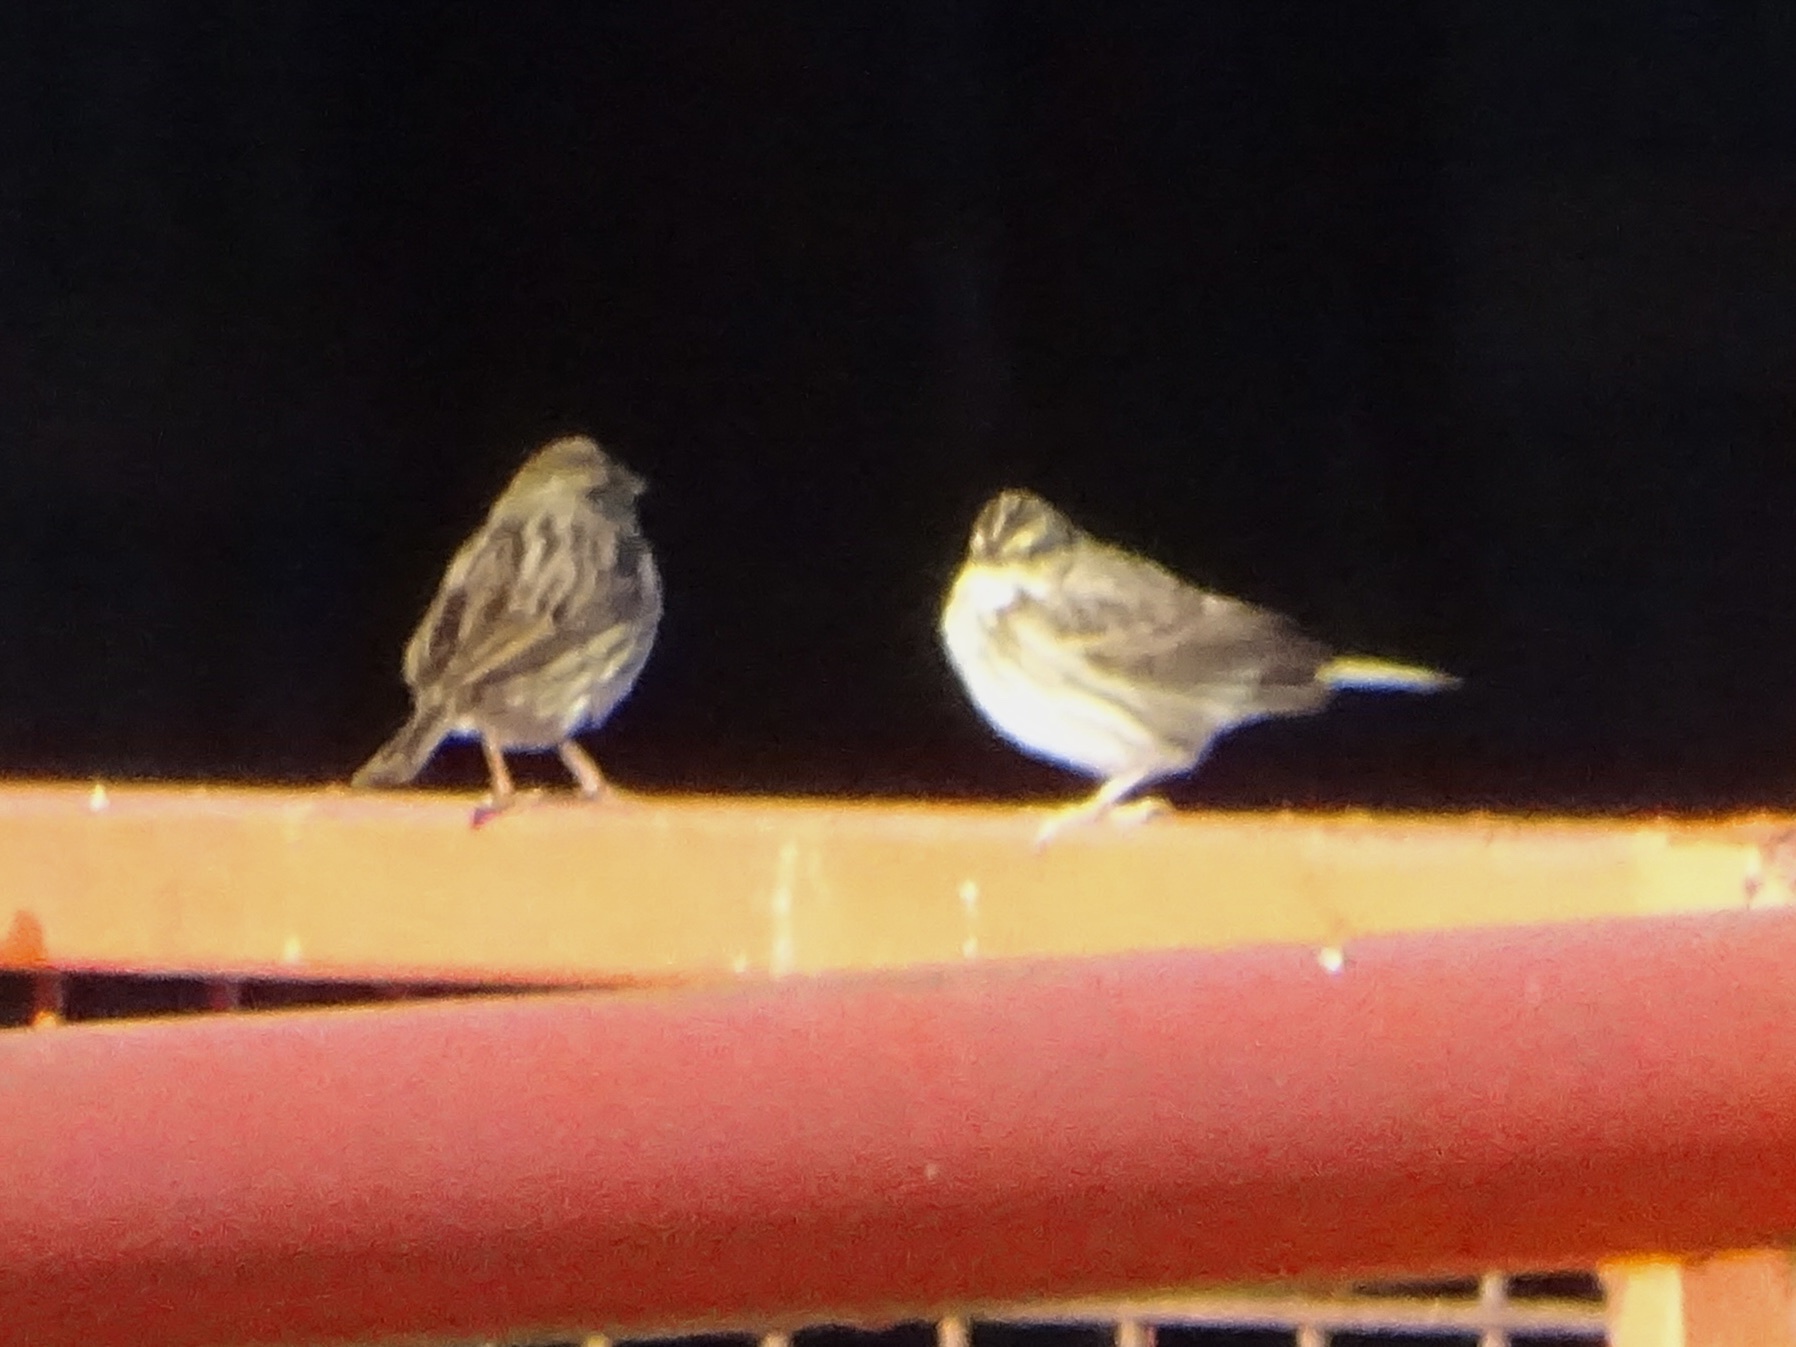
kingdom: Animalia
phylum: Chordata
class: Aves
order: Passeriformes
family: Passerellidae
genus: Passerculus
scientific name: Passerculus sandwichensis
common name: Savannah sparrow
